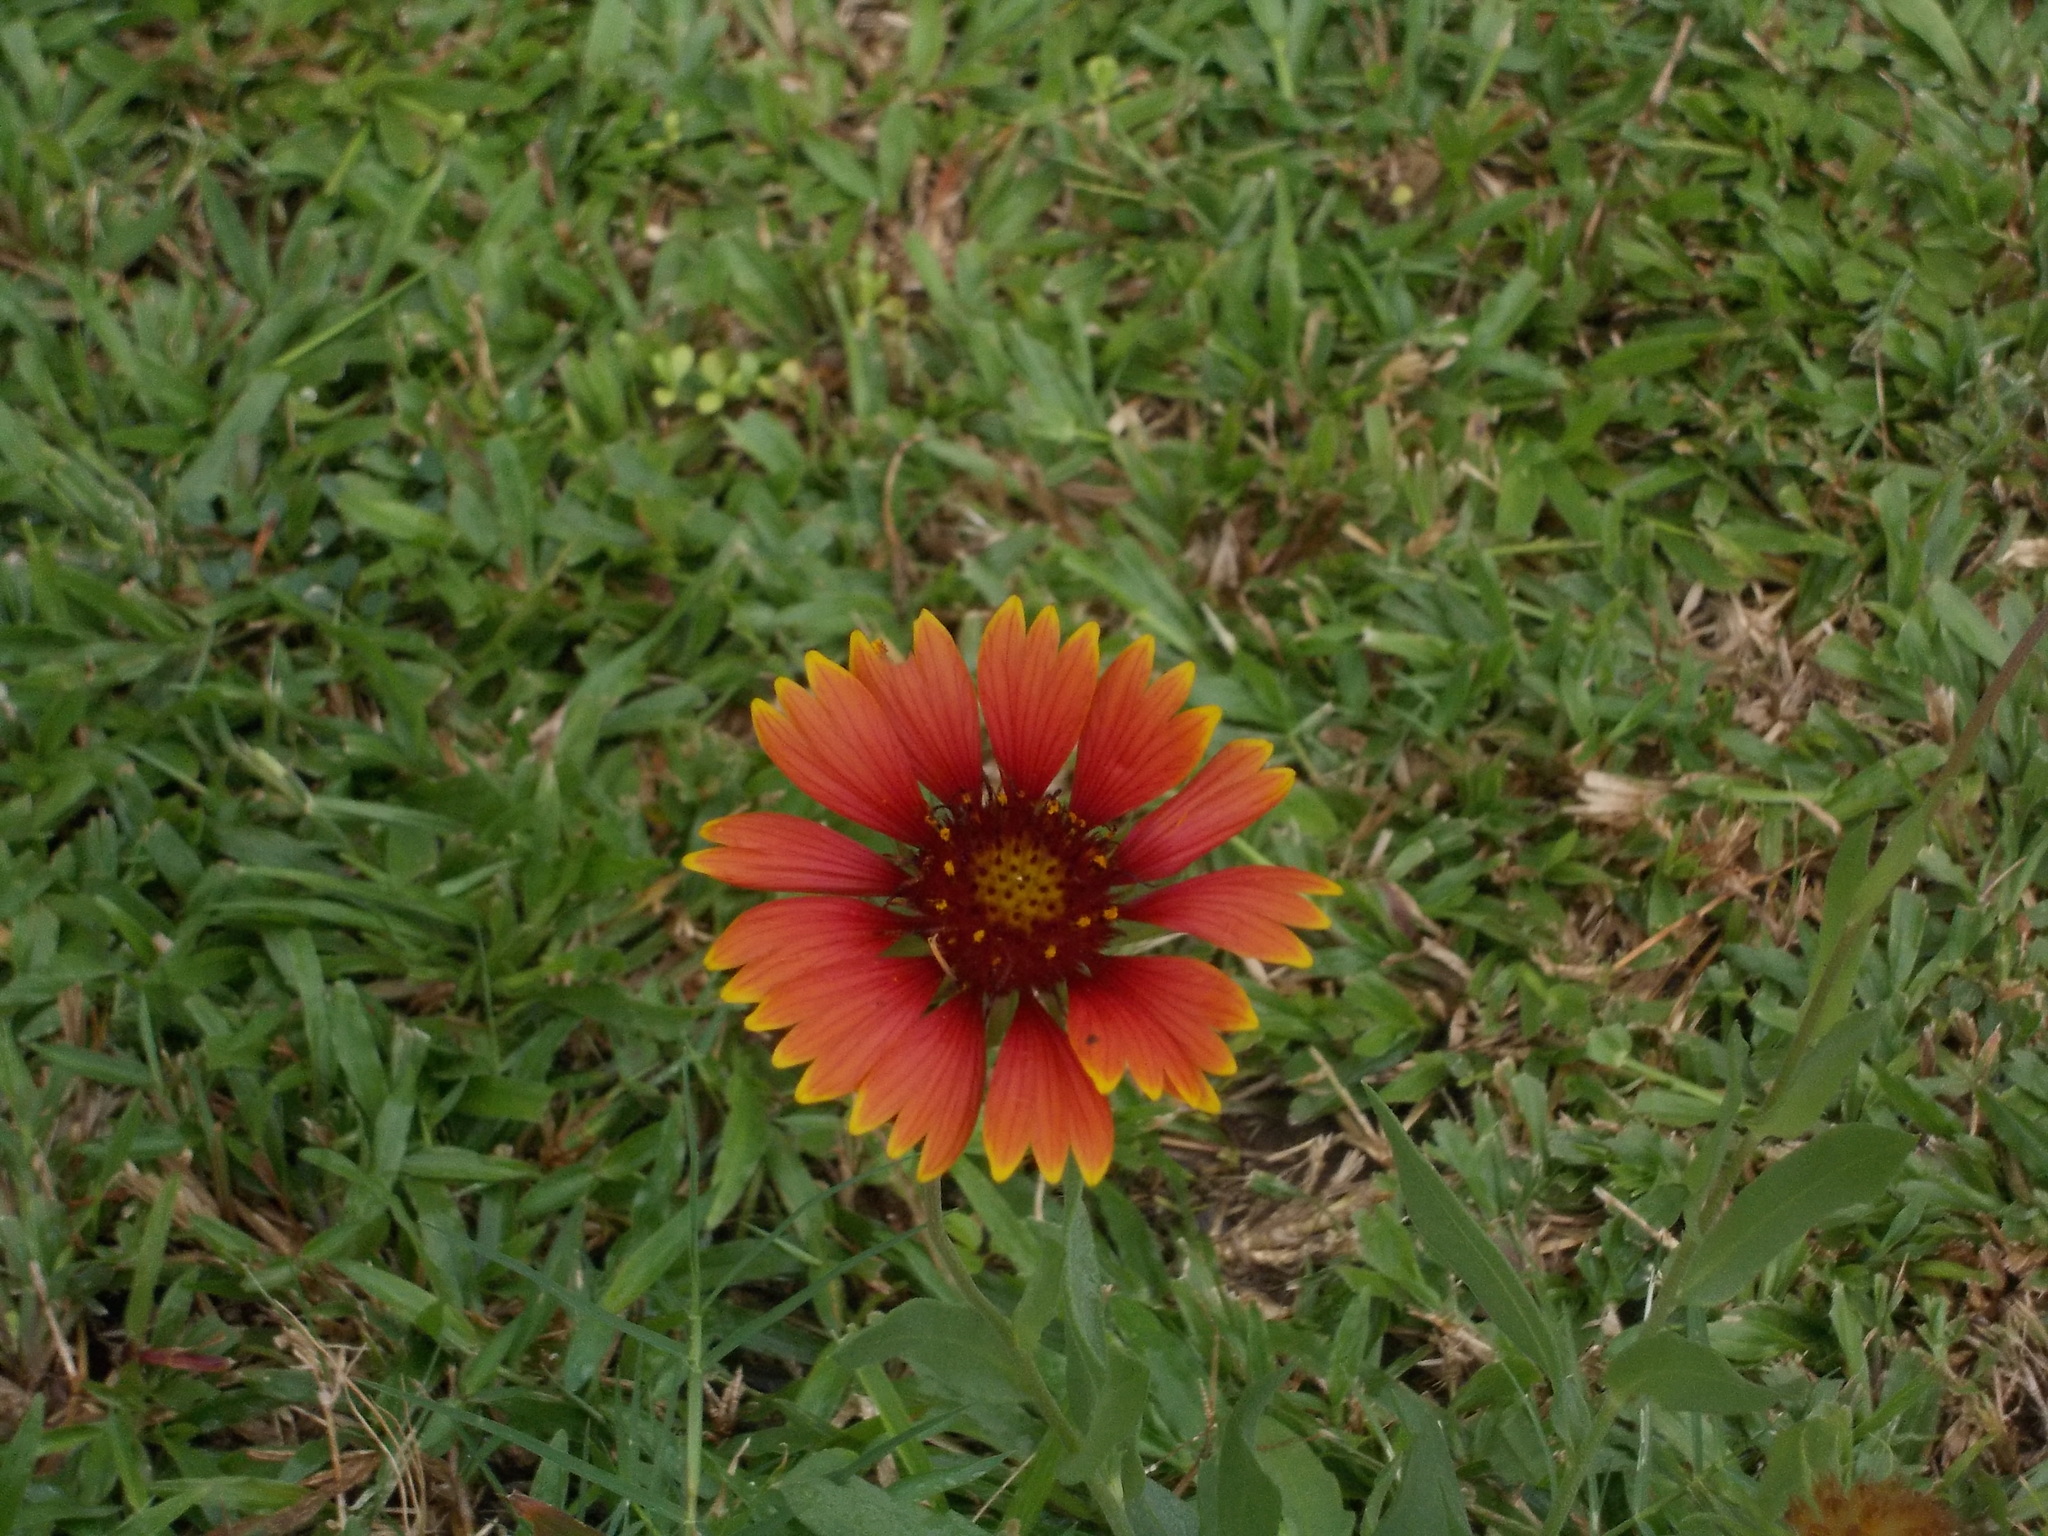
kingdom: Plantae
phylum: Tracheophyta
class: Magnoliopsida
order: Asterales
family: Asteraceae
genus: Gaillardia
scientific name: Gaillardia pulchella
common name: Firewheel
